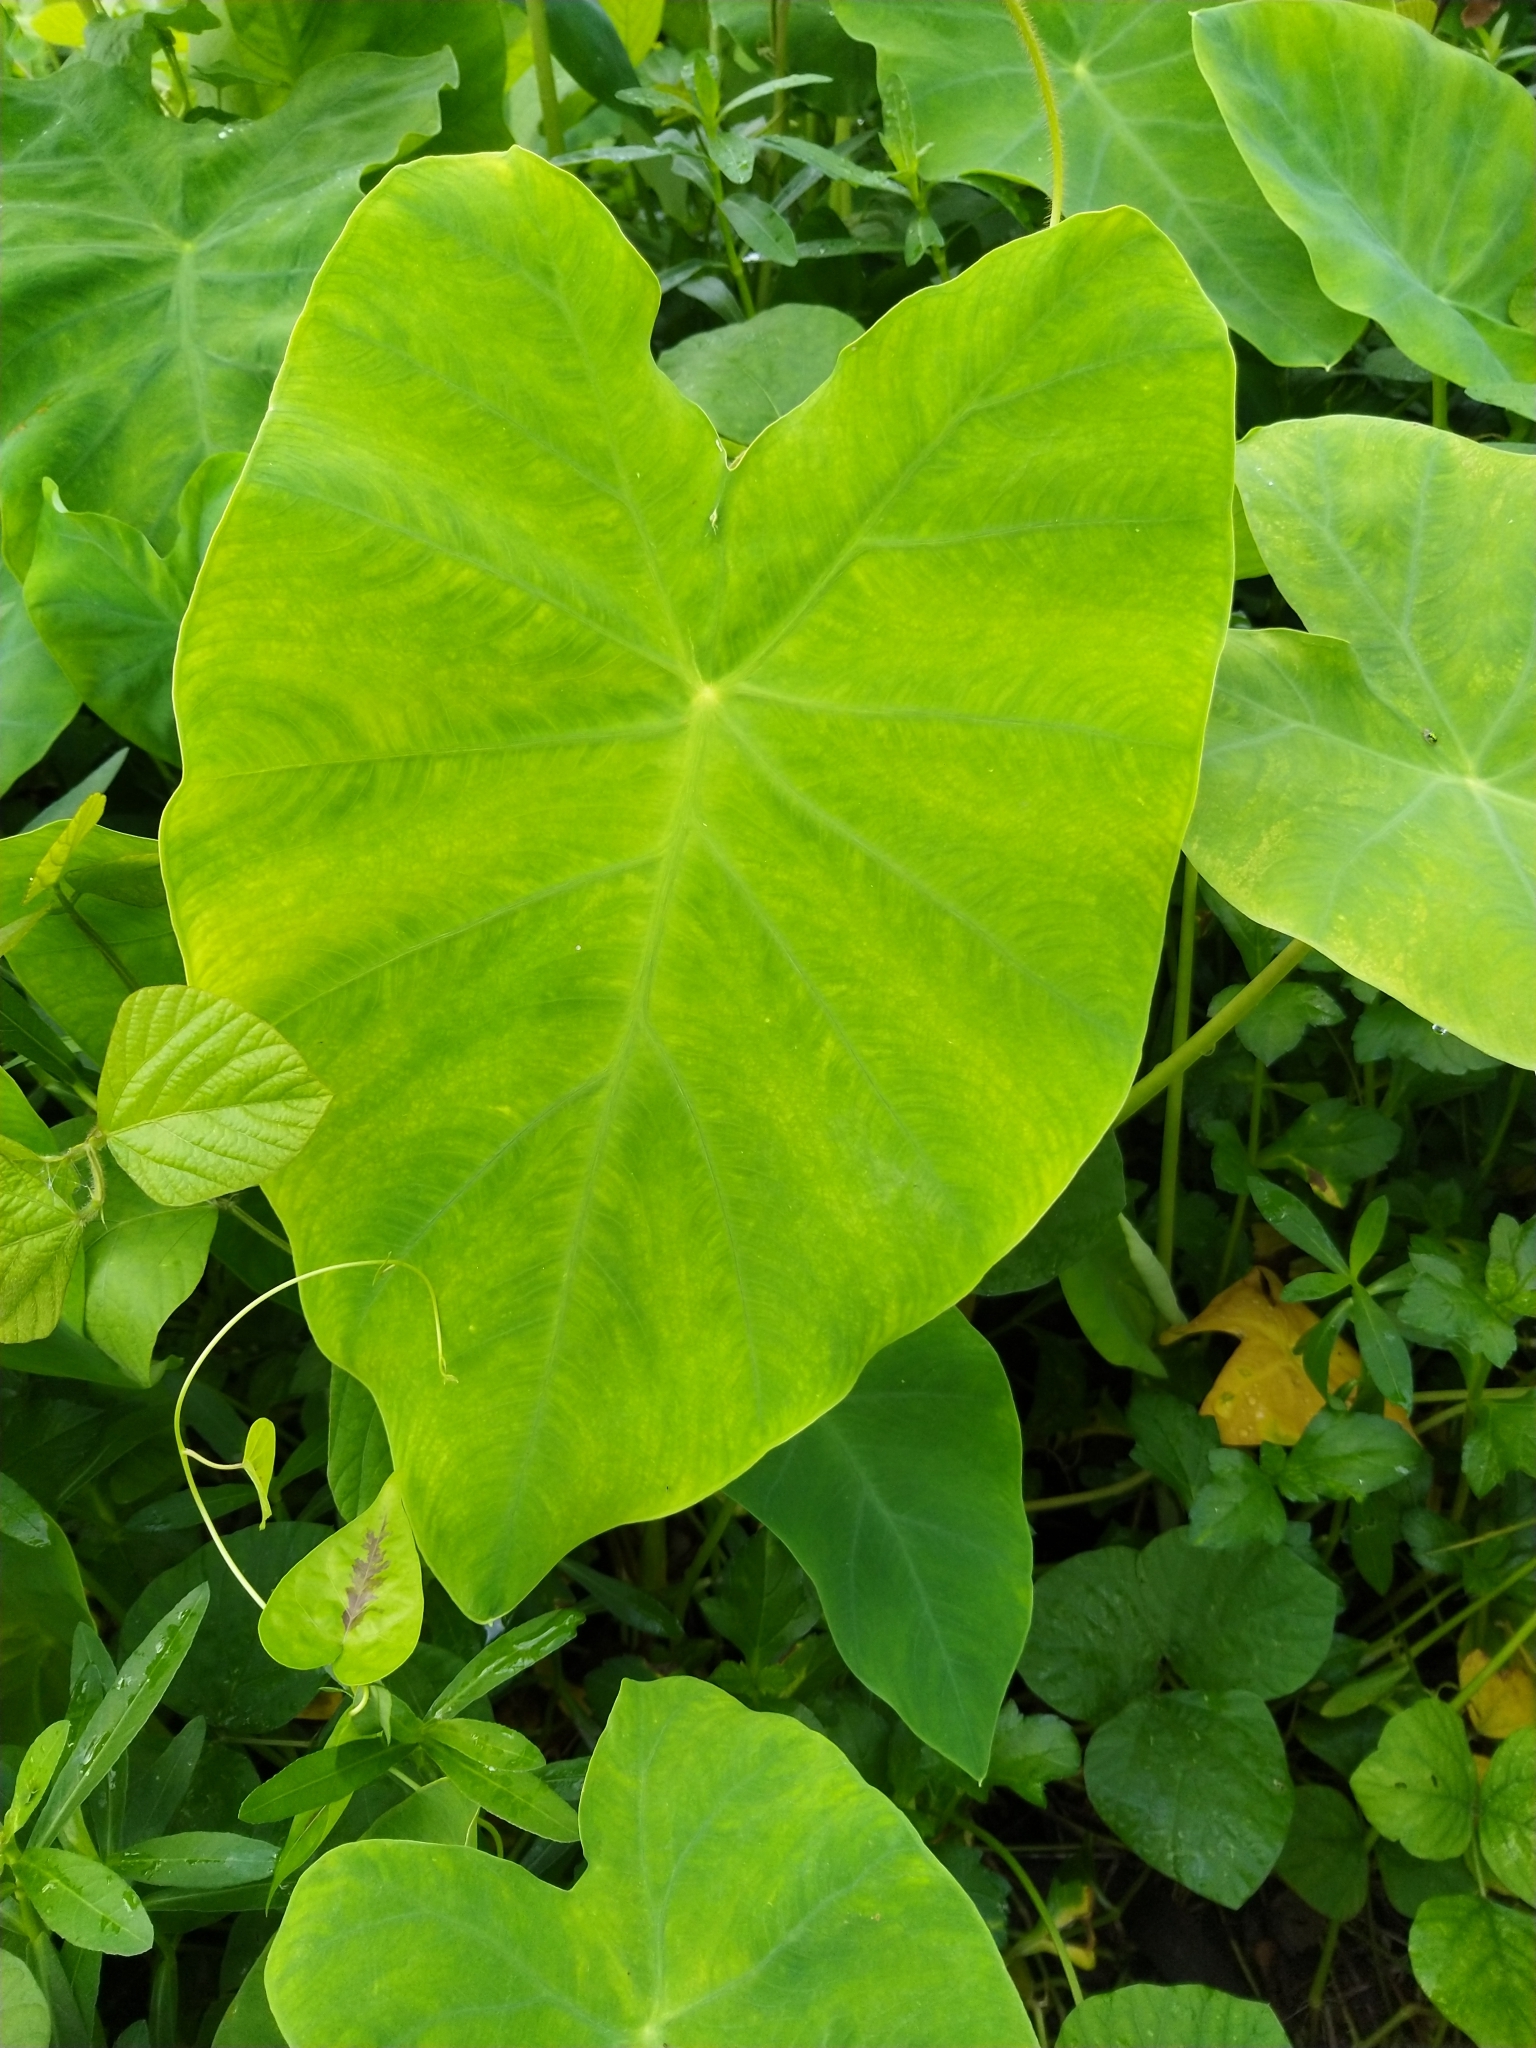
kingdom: Plantae
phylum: Tracheophyta
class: Liliopsida
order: Alismatales
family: Araceae
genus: Colocasia
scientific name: Colocasia esculenta
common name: Taro
